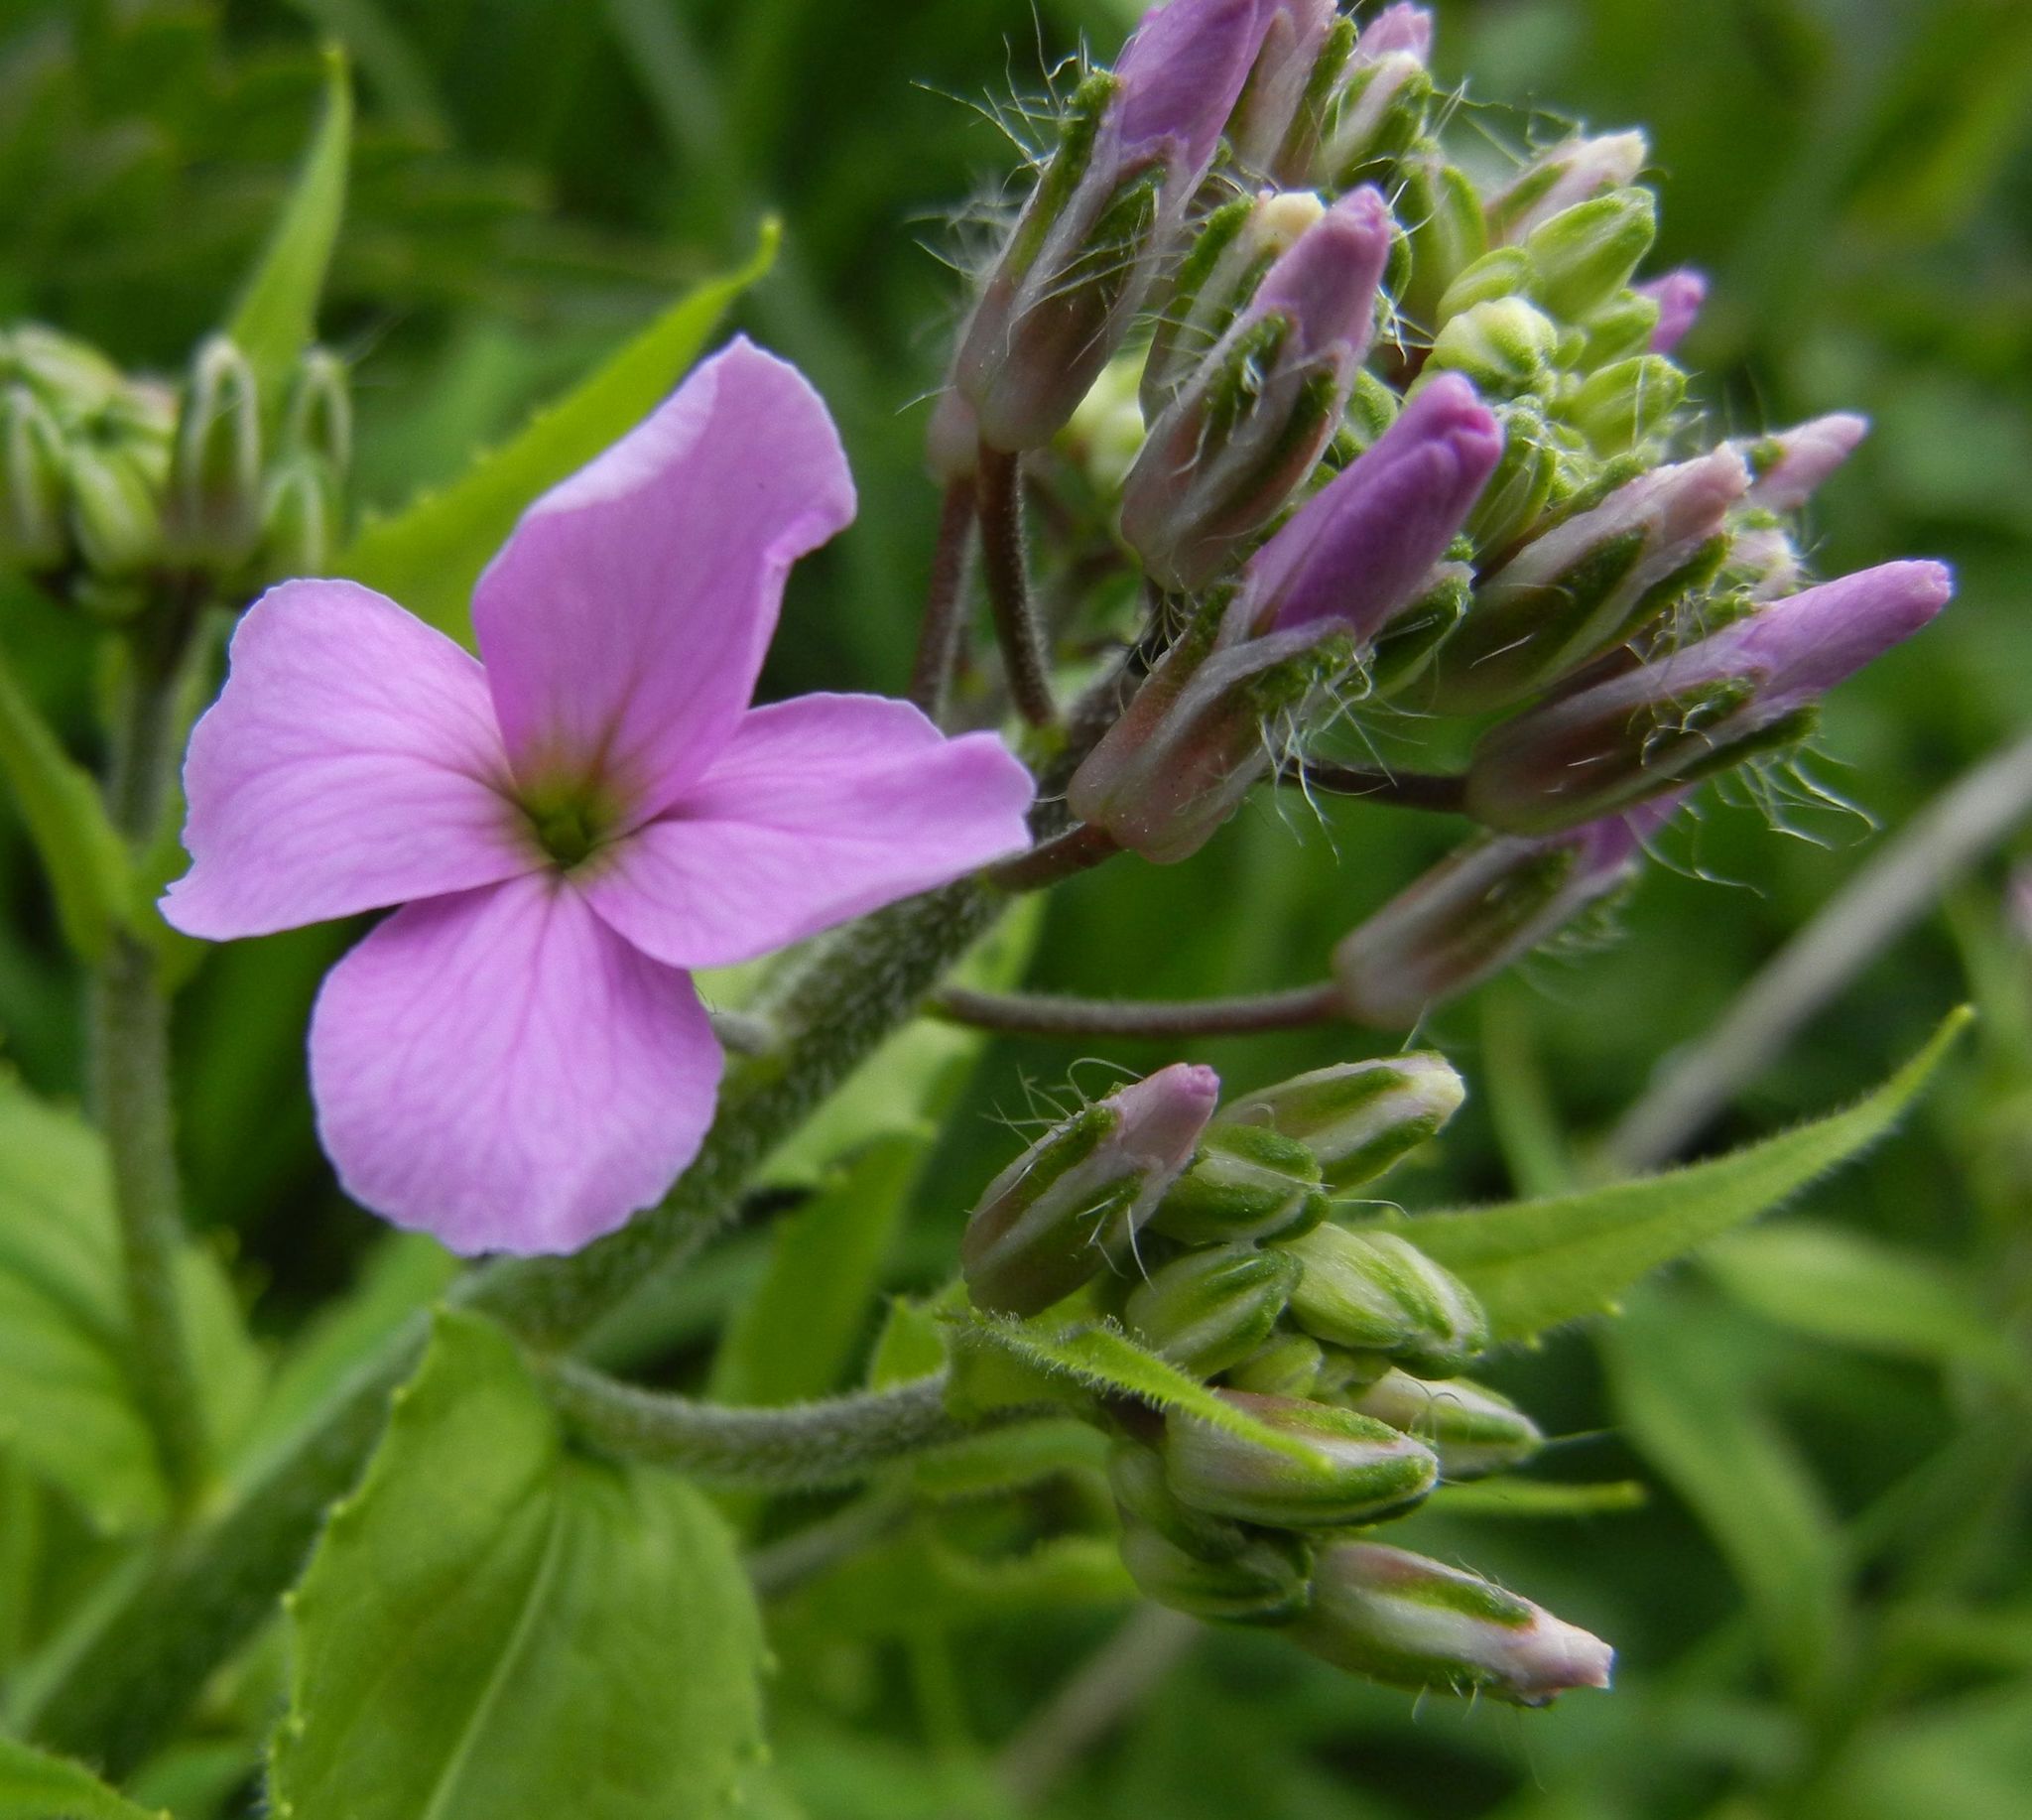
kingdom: Plantae
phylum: Tracheophyta
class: Magnoliopsida
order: Brassicales
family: Brassicaceae
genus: Hesperis
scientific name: Hesperis matronalis
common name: Dame's-violet
